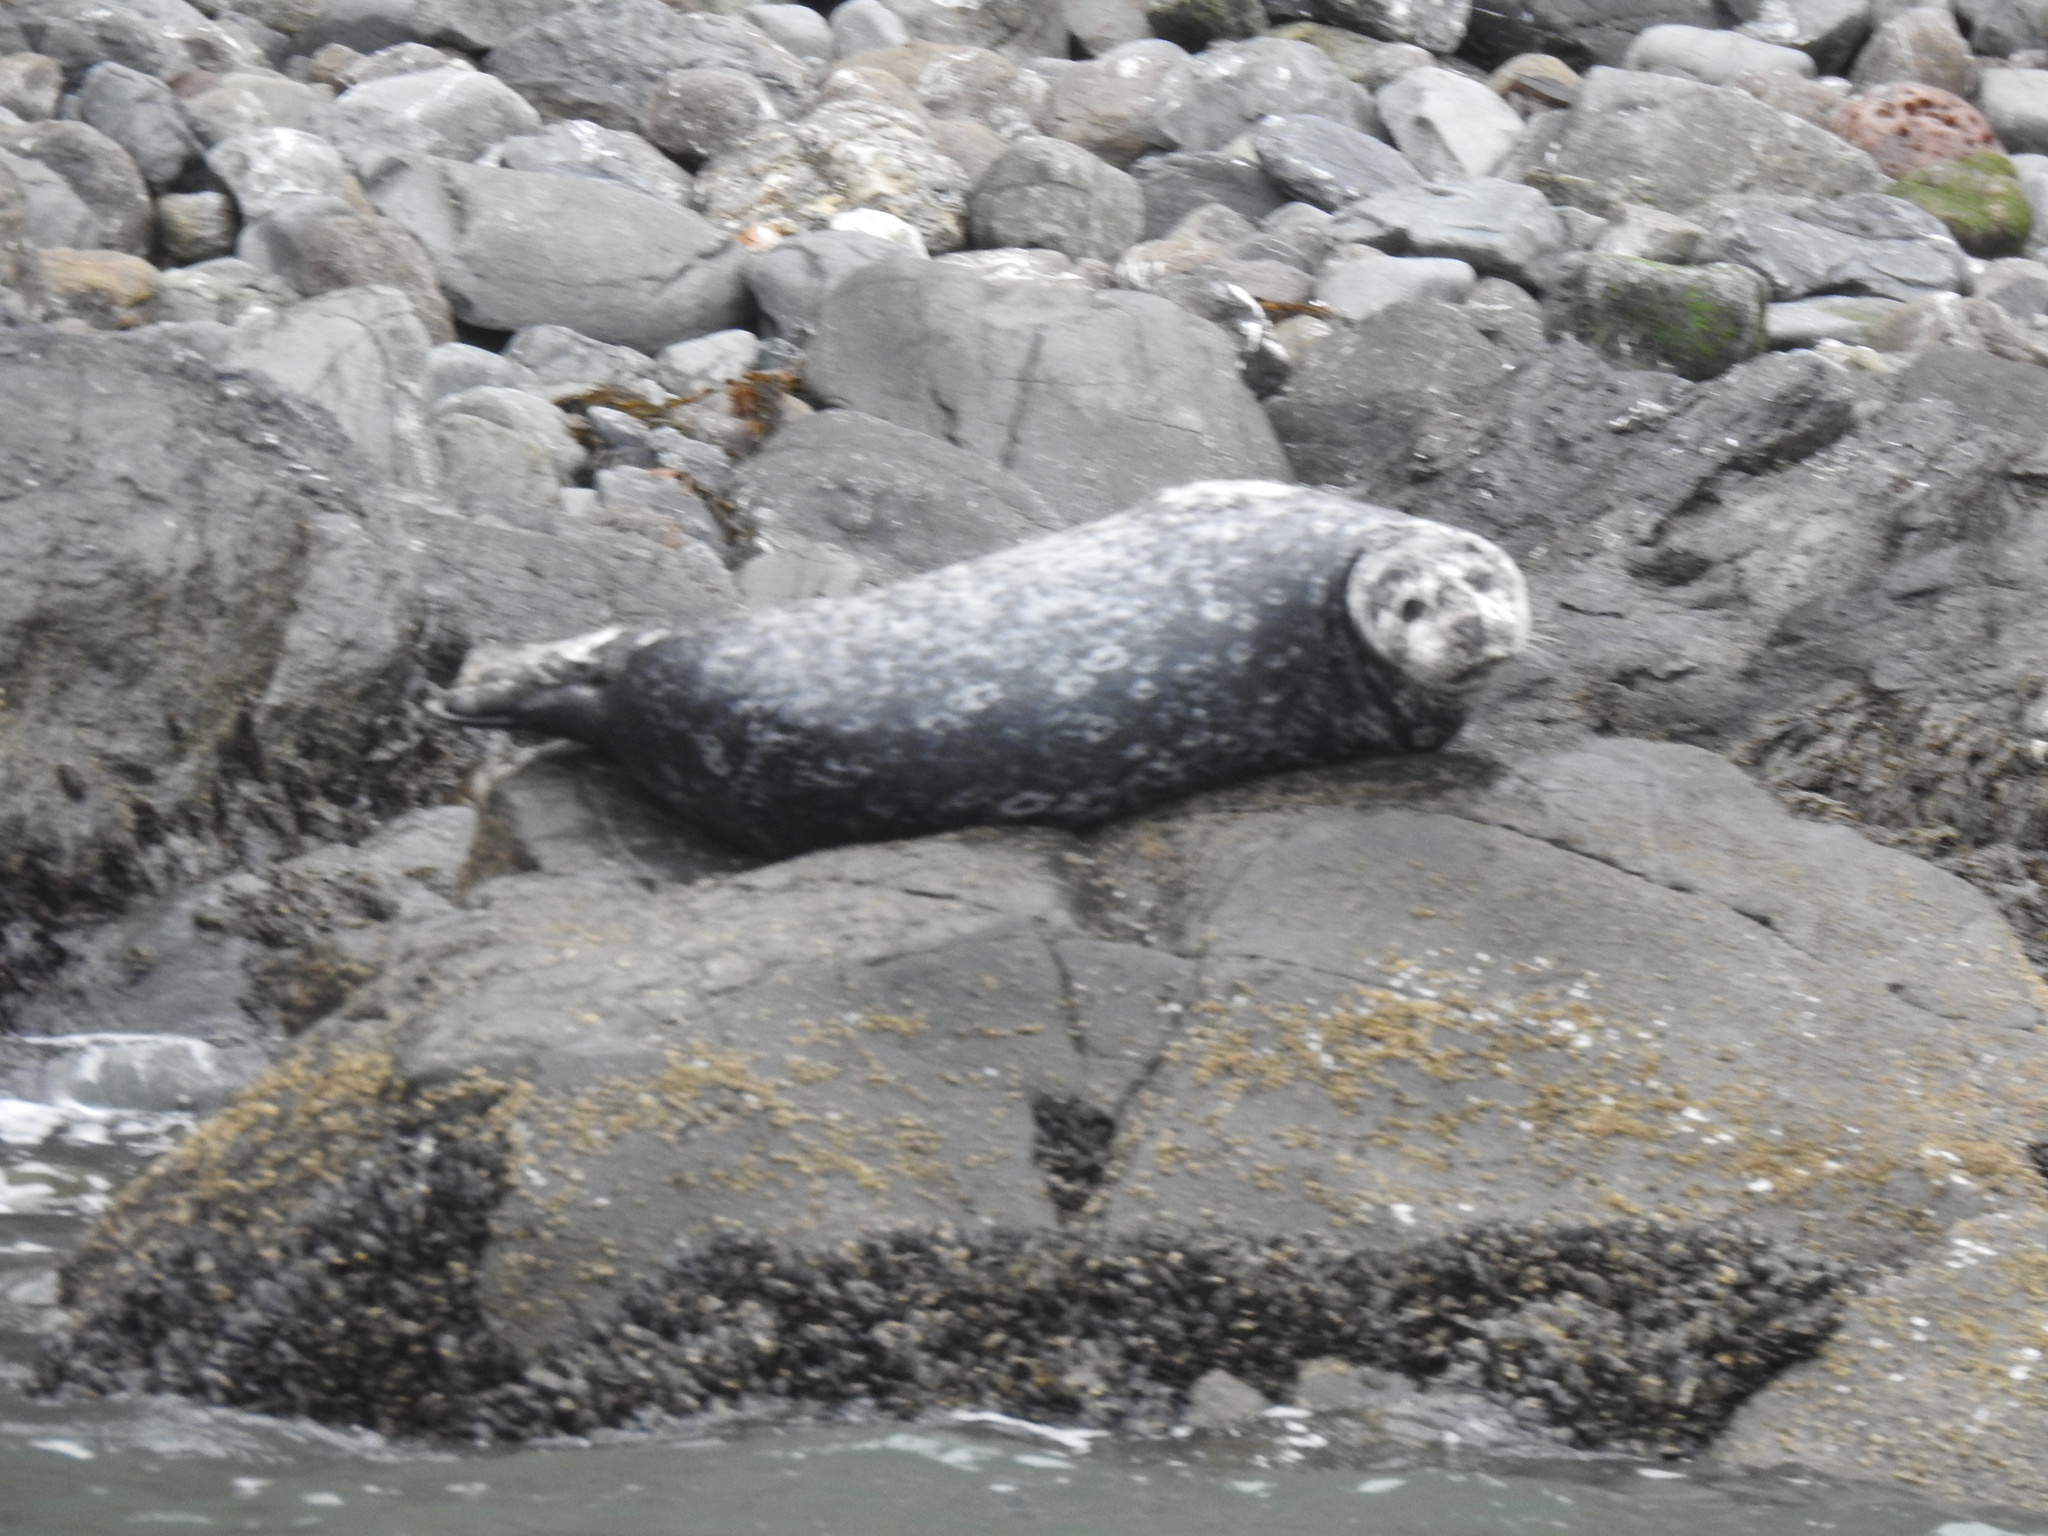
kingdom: Animalia
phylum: Chordata
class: Mammalia
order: Carnivora
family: Phocidae
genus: Phoca
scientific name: Phoca vitulina
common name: Harbor seal
